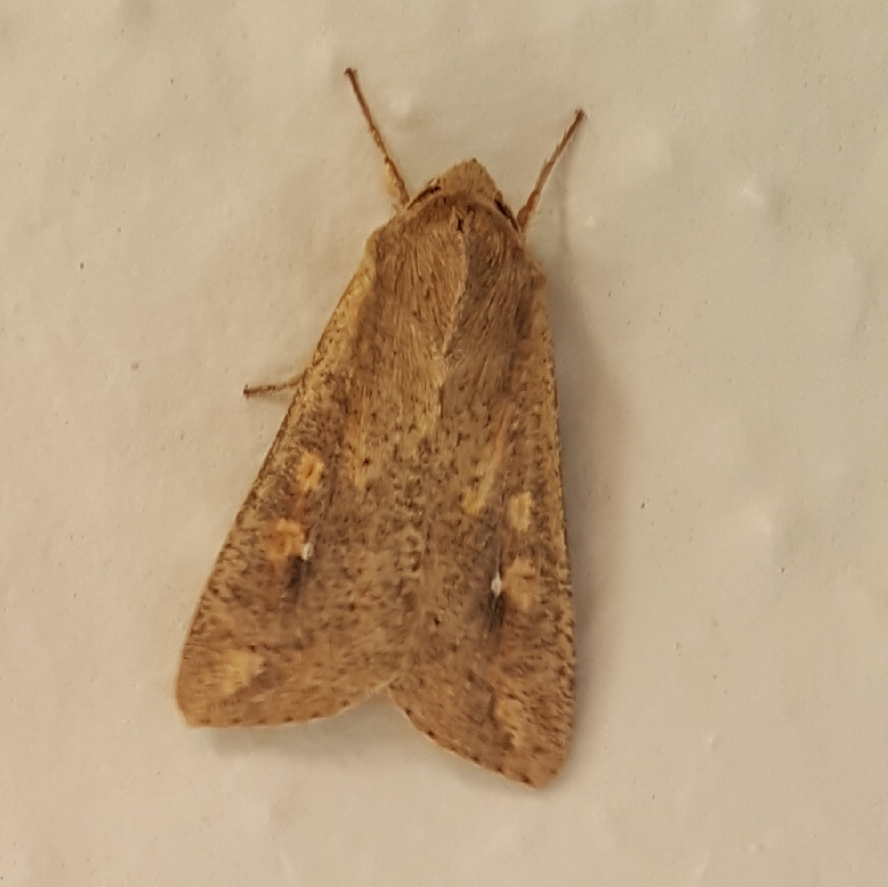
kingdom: Animalia
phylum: Arthropoda
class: Insecta
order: Lepidoptera
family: Noctuidae
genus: Mythimna
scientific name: Mythimna unipuncta
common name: White-speck
